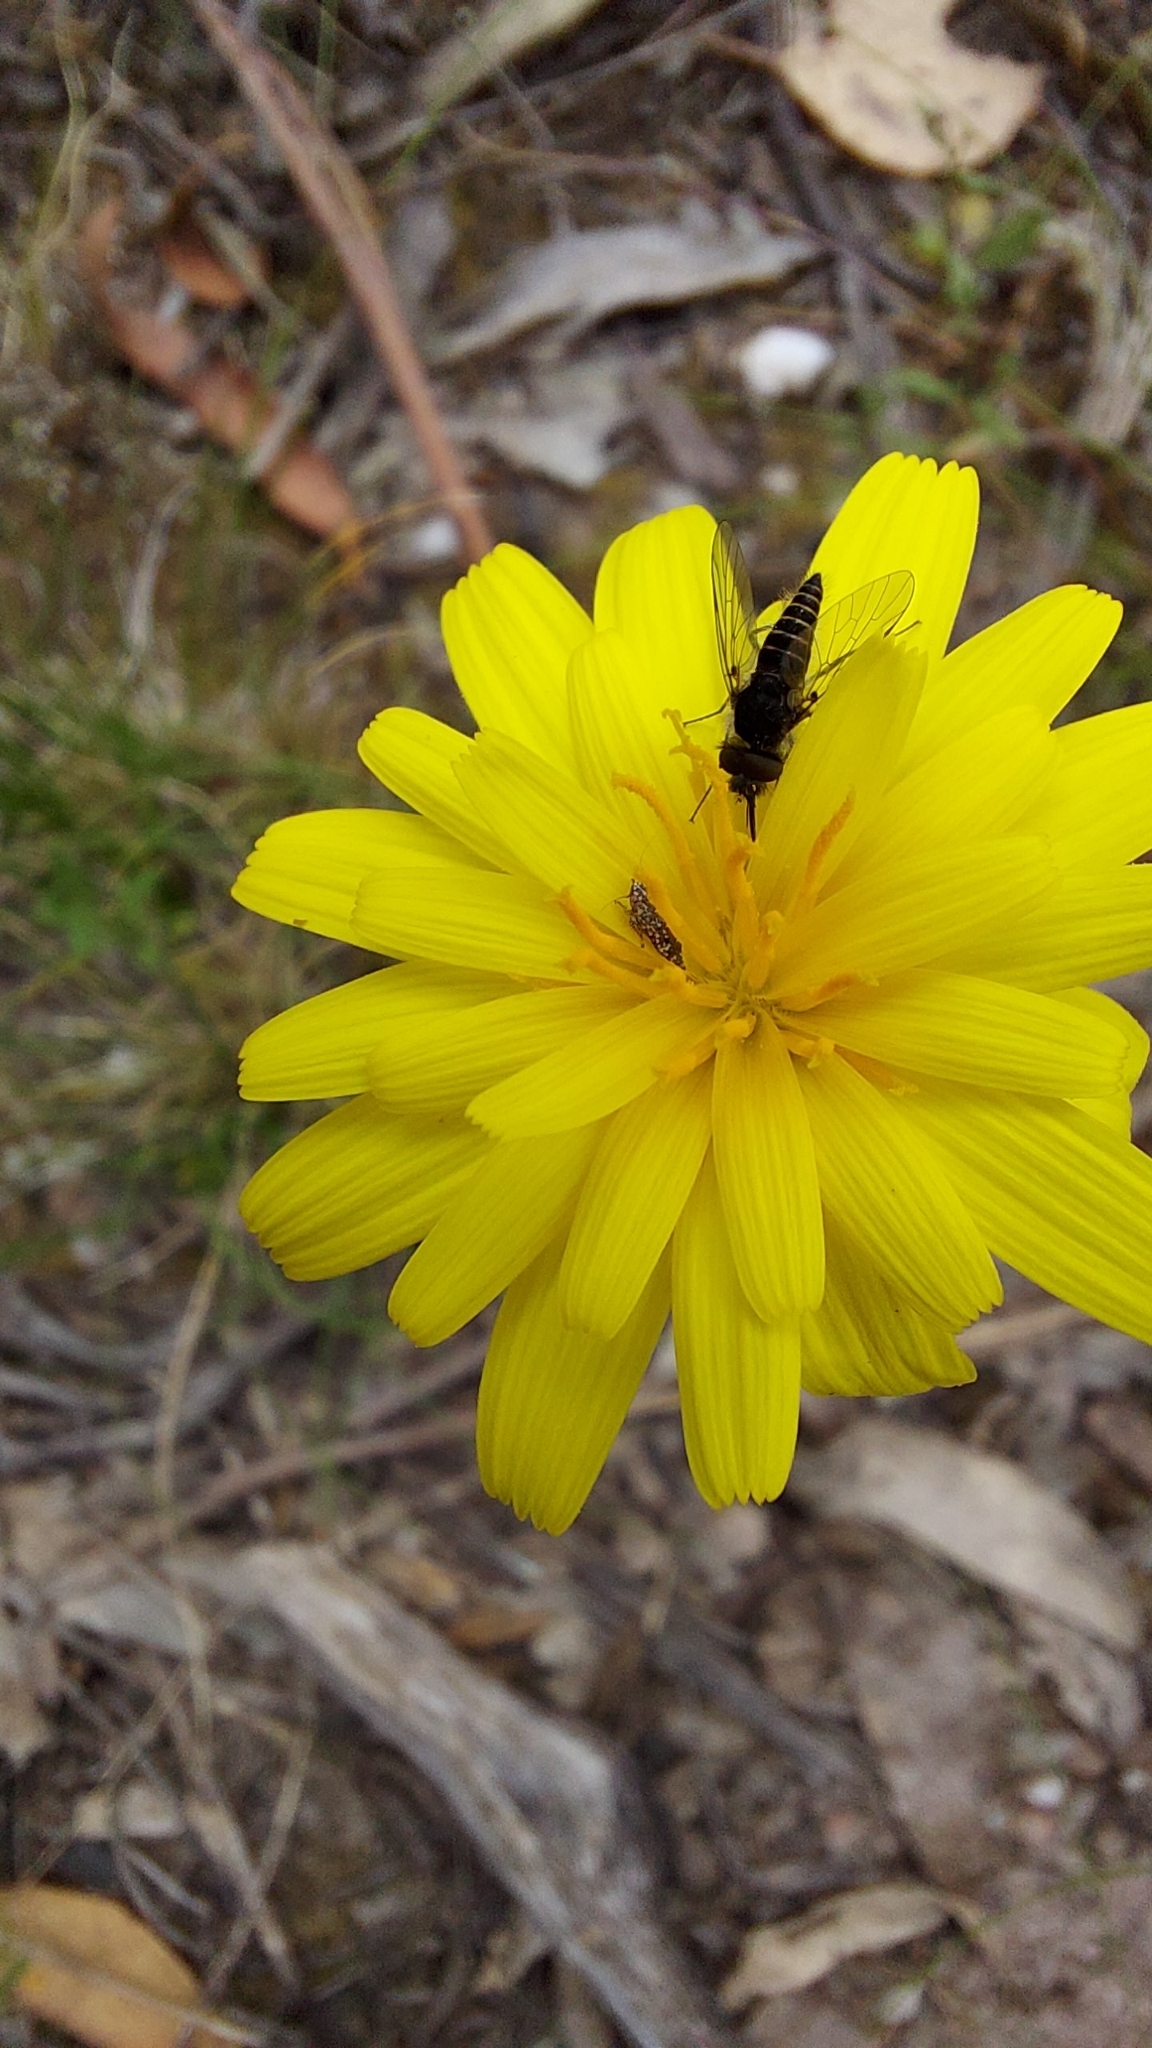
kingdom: Plantae
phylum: Tracheophyta
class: Magnoliopsida
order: Asterales
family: Asteraceae
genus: Microseris
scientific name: Microseris lanceolata
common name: Yam daisy
